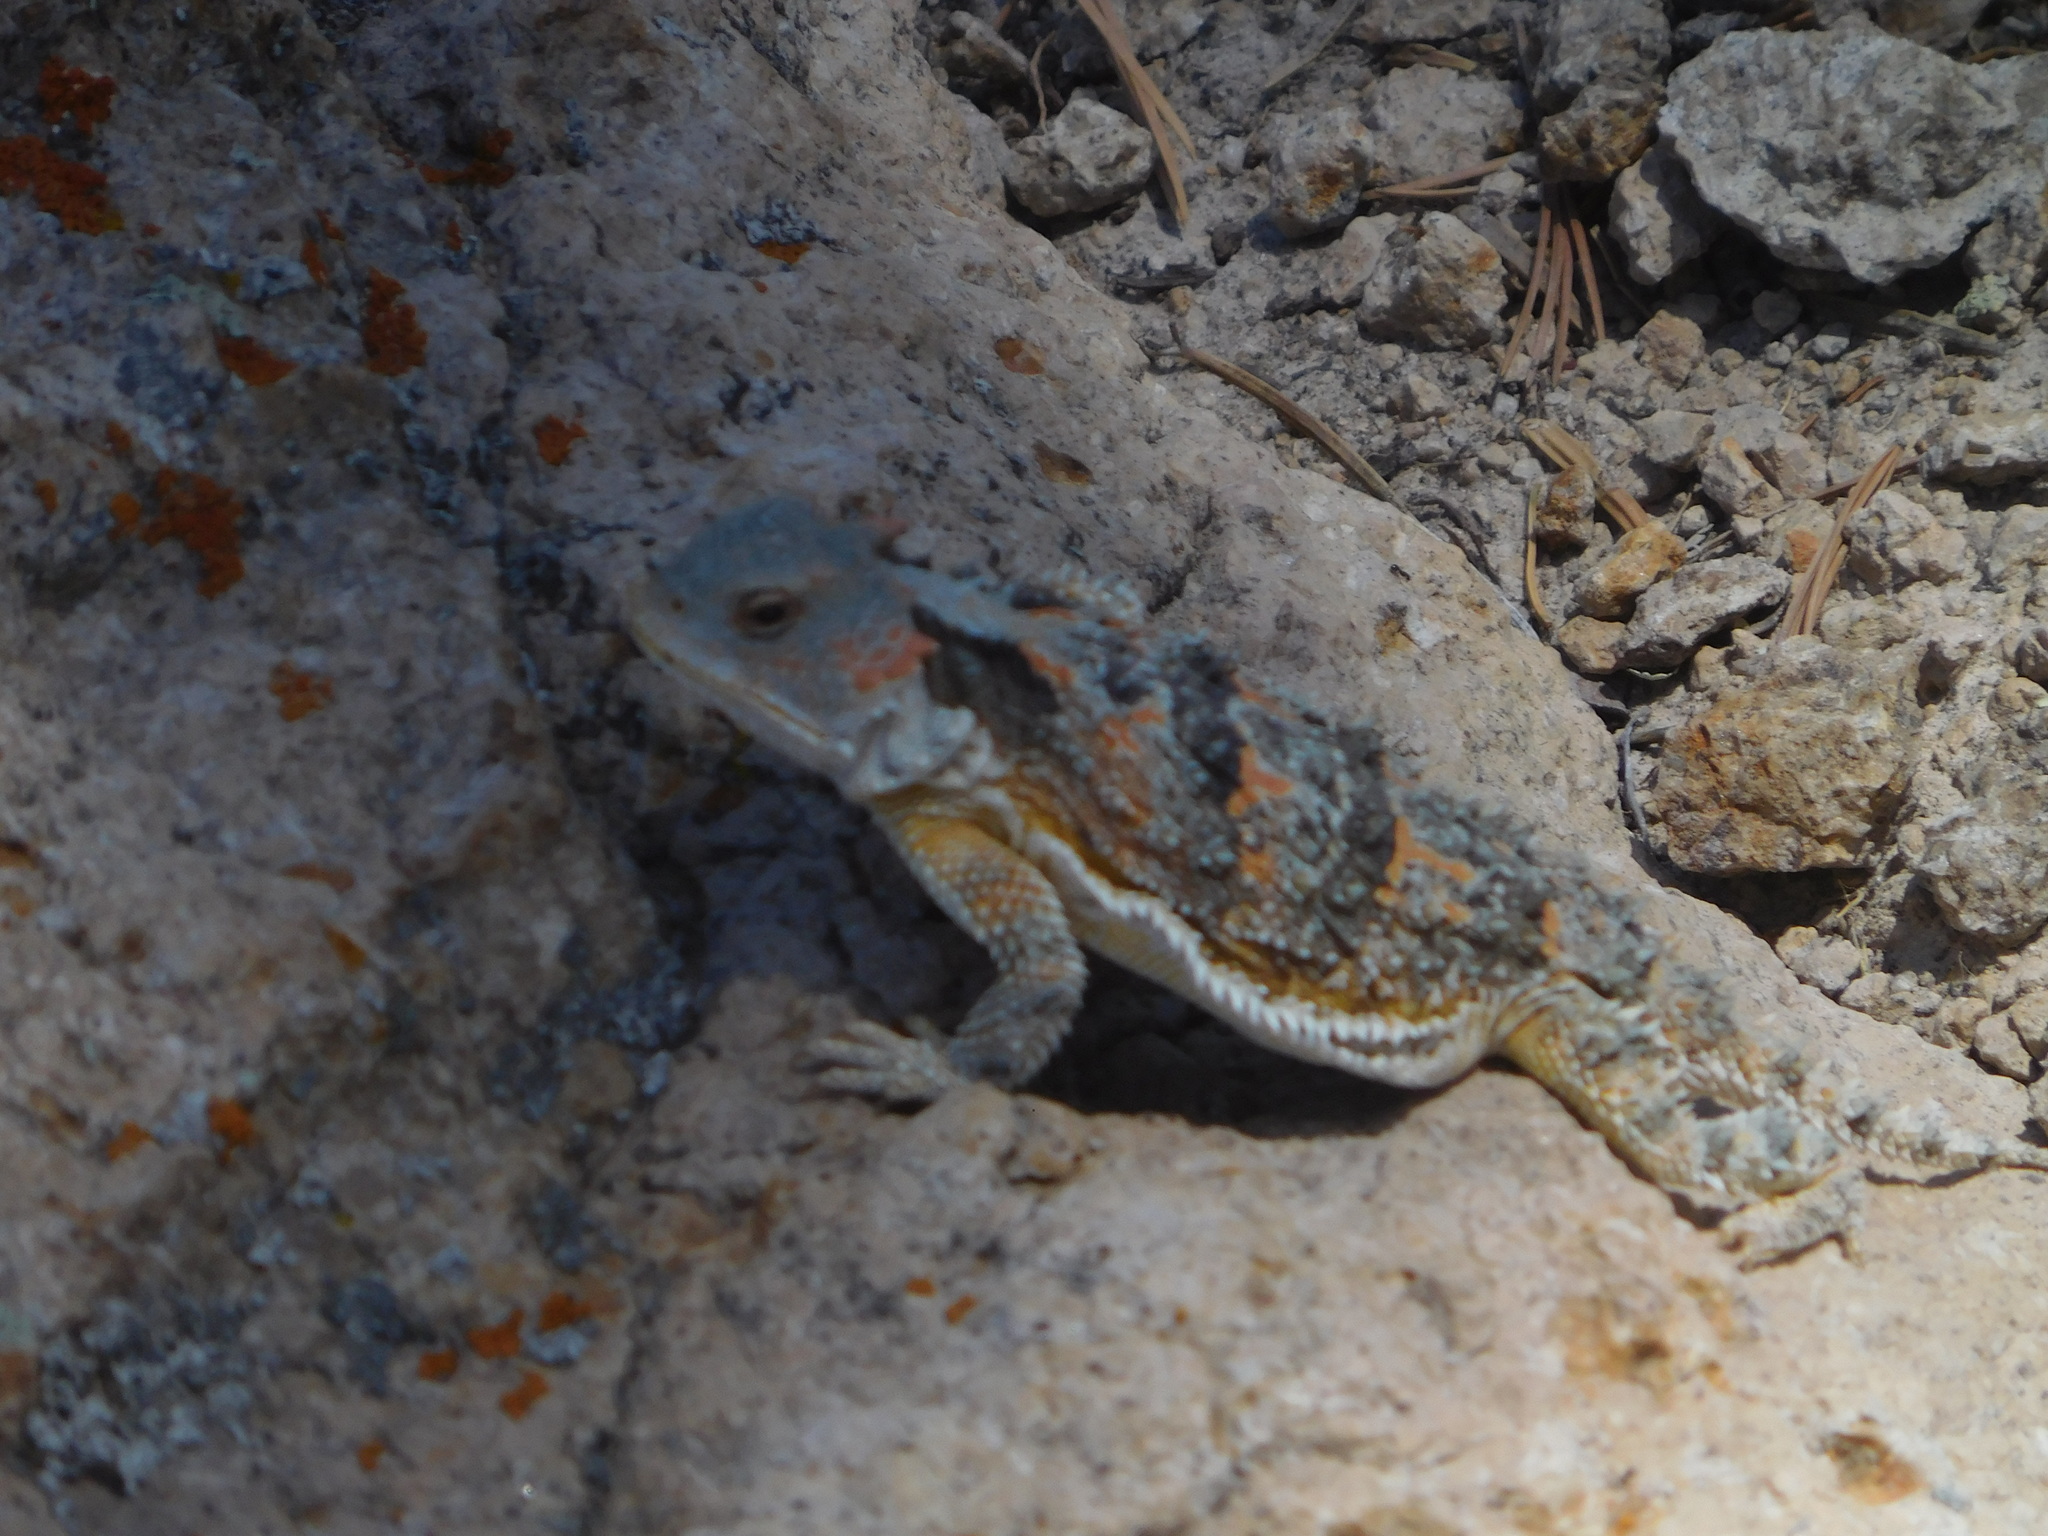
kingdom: Animalia
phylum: Chordata
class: Squamata
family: Phrynosomatidae
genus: Phrynosoma
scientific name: Phrynosoma hernandesi
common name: Greater short-horned lizard
